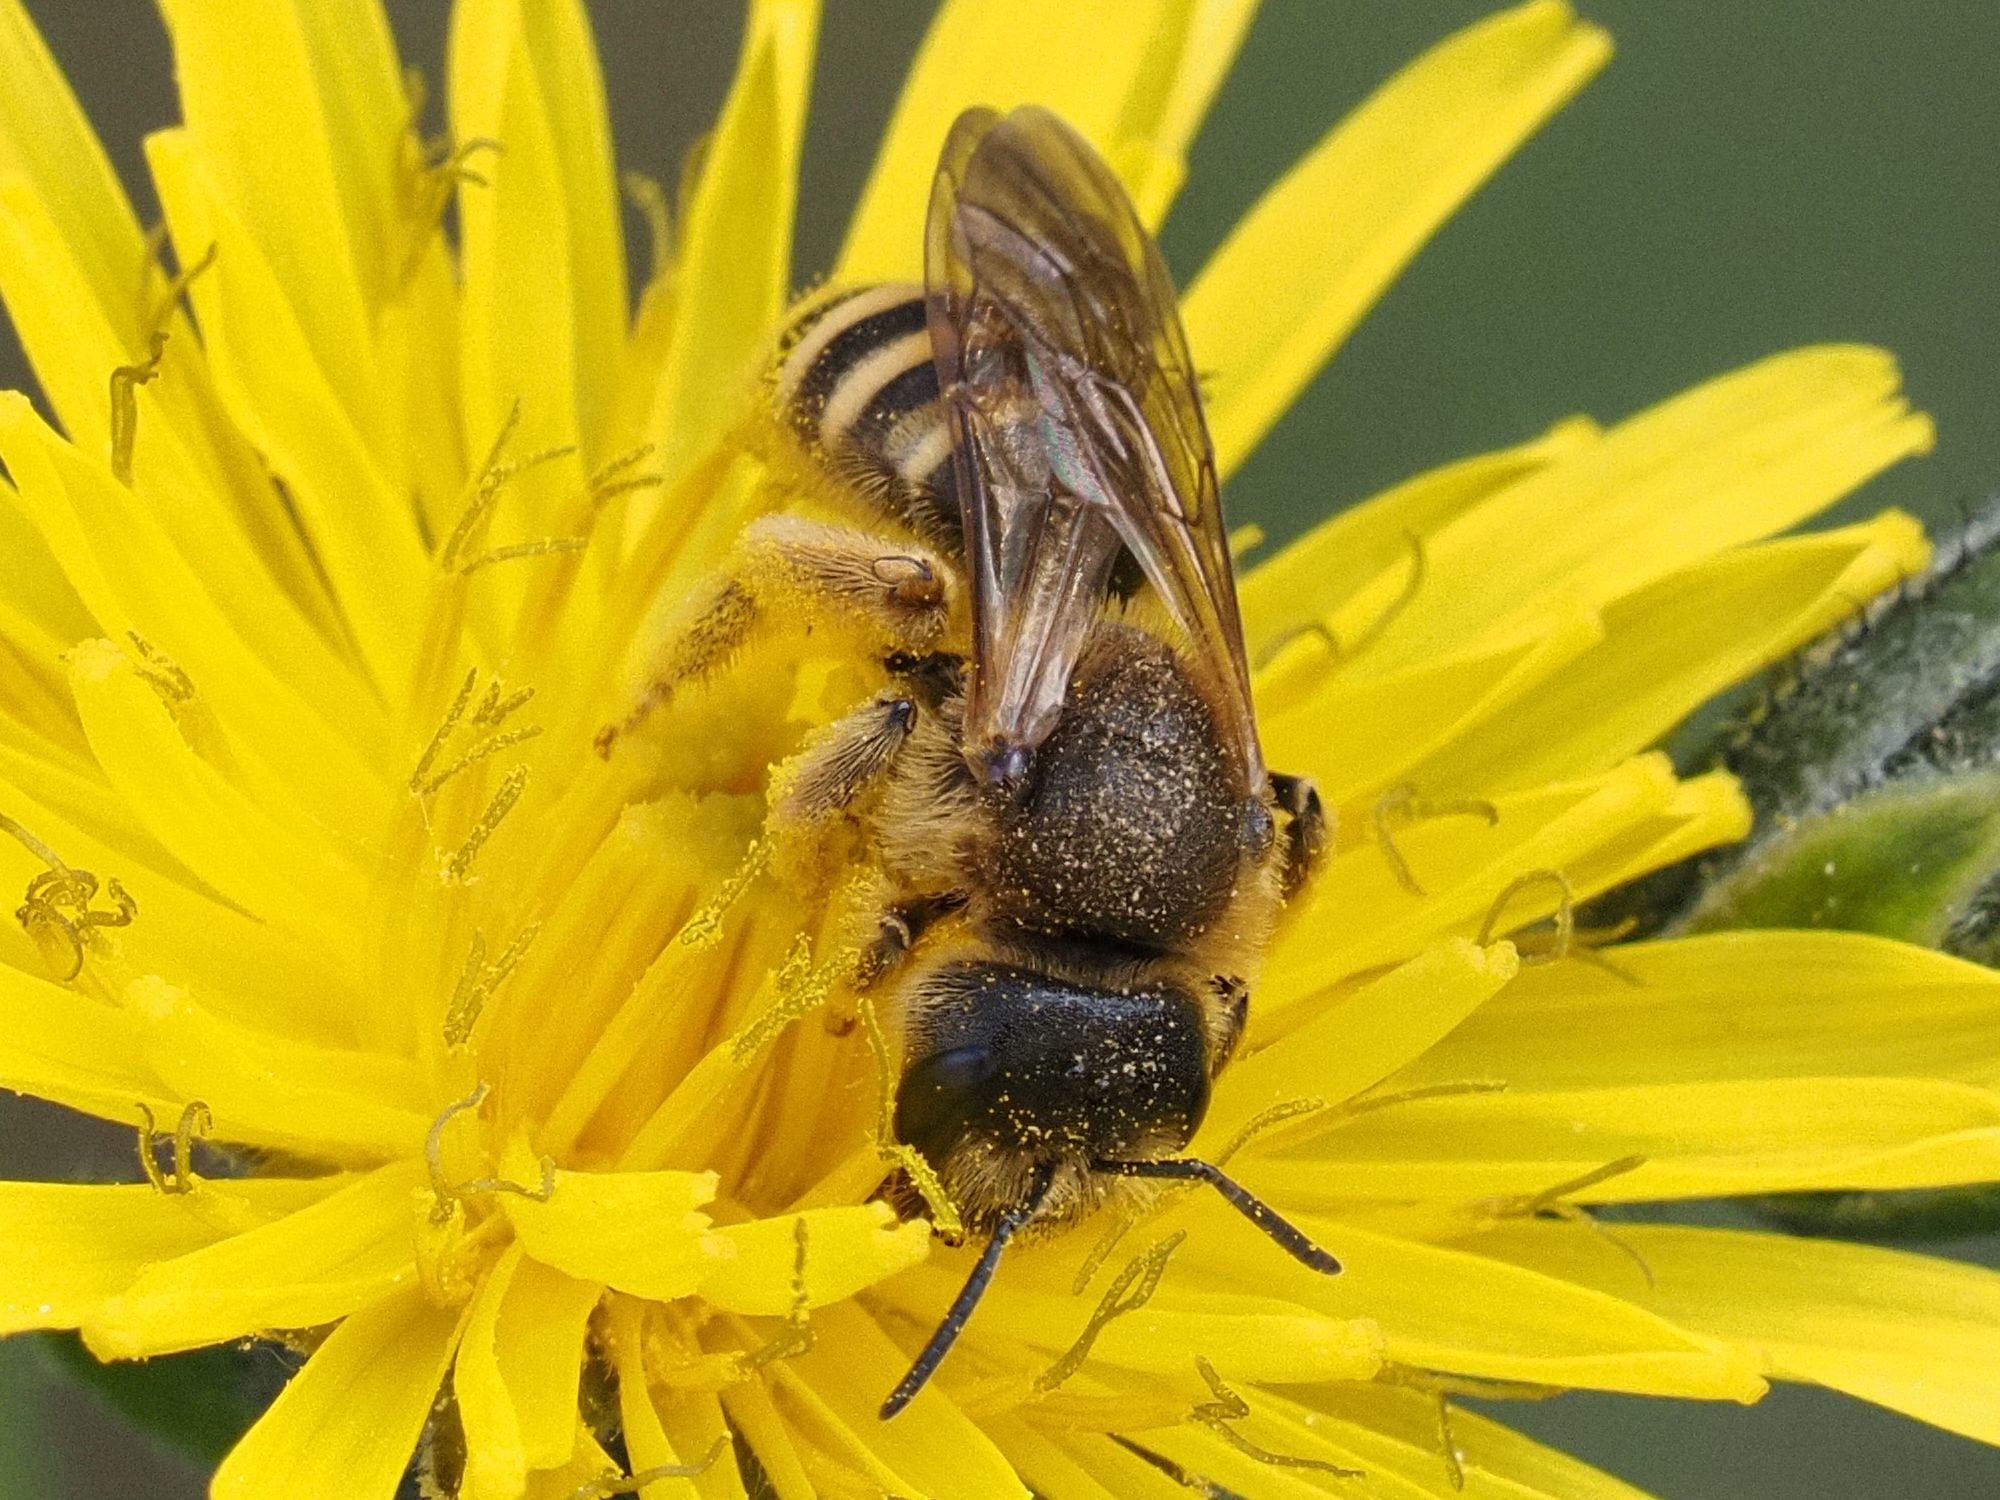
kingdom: Animalia
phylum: Arthropoda
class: Insecta
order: Hymenoptera
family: Halictidae
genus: Halictus
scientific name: Halictus scabiosae
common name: Great banded furrow bee
